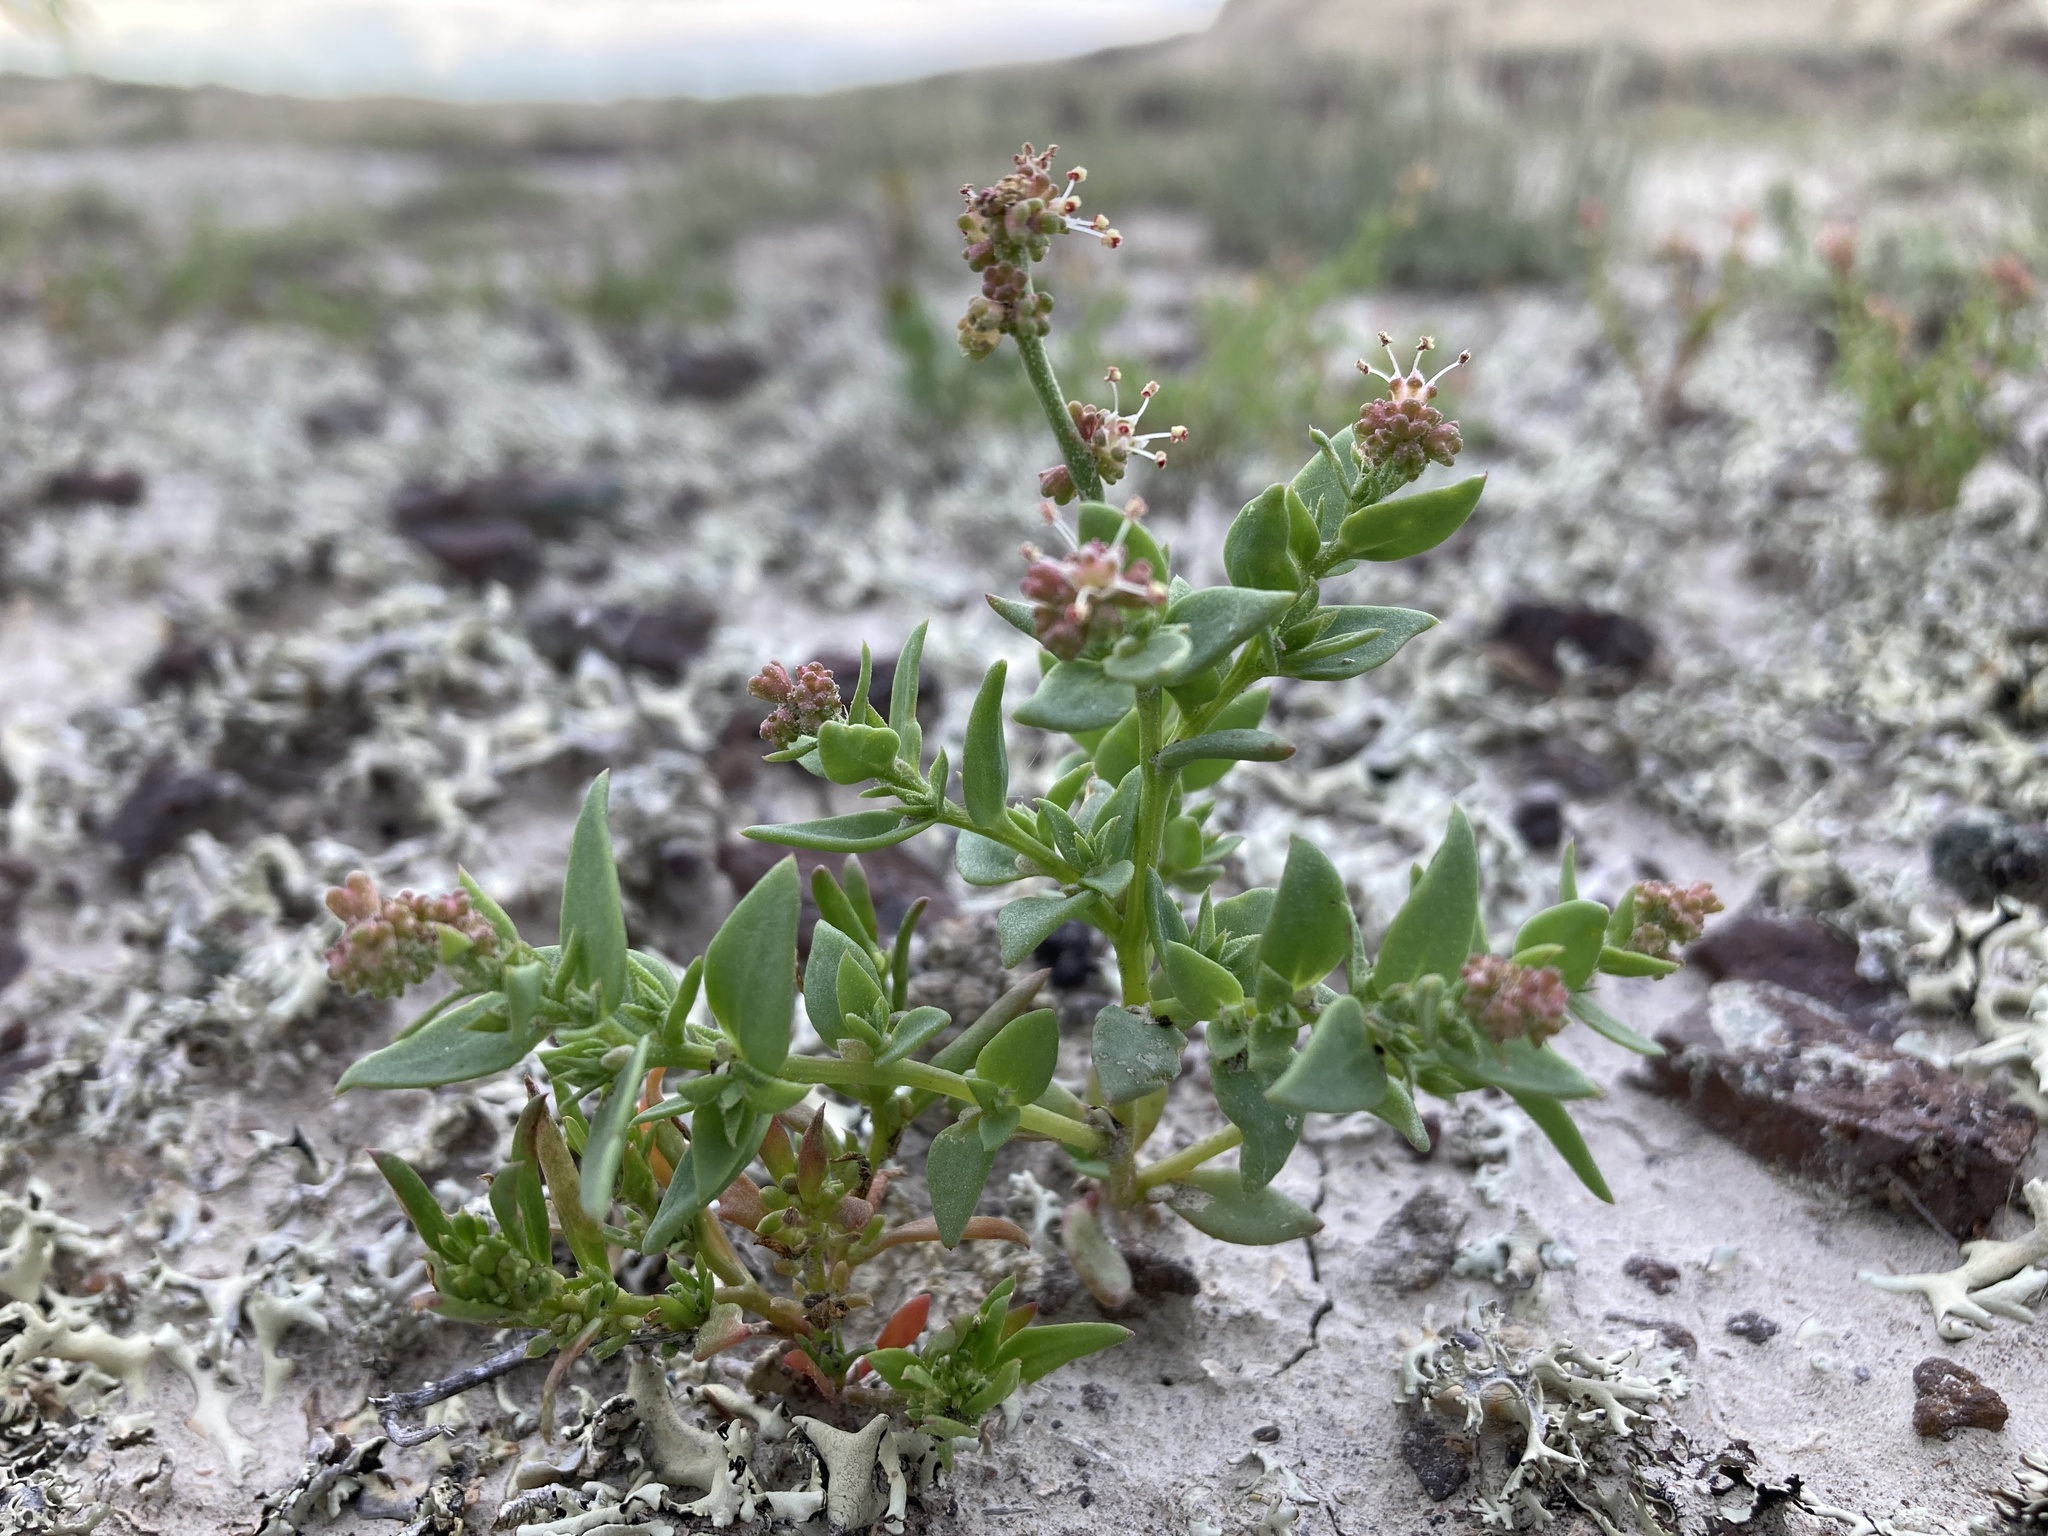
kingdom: Plantae
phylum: Tracheophyta
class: Magnoliopsida
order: Caryophyllales
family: Amaranthaceae
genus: Stutzia
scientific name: Stutzia dioica
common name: Suckley's orach
